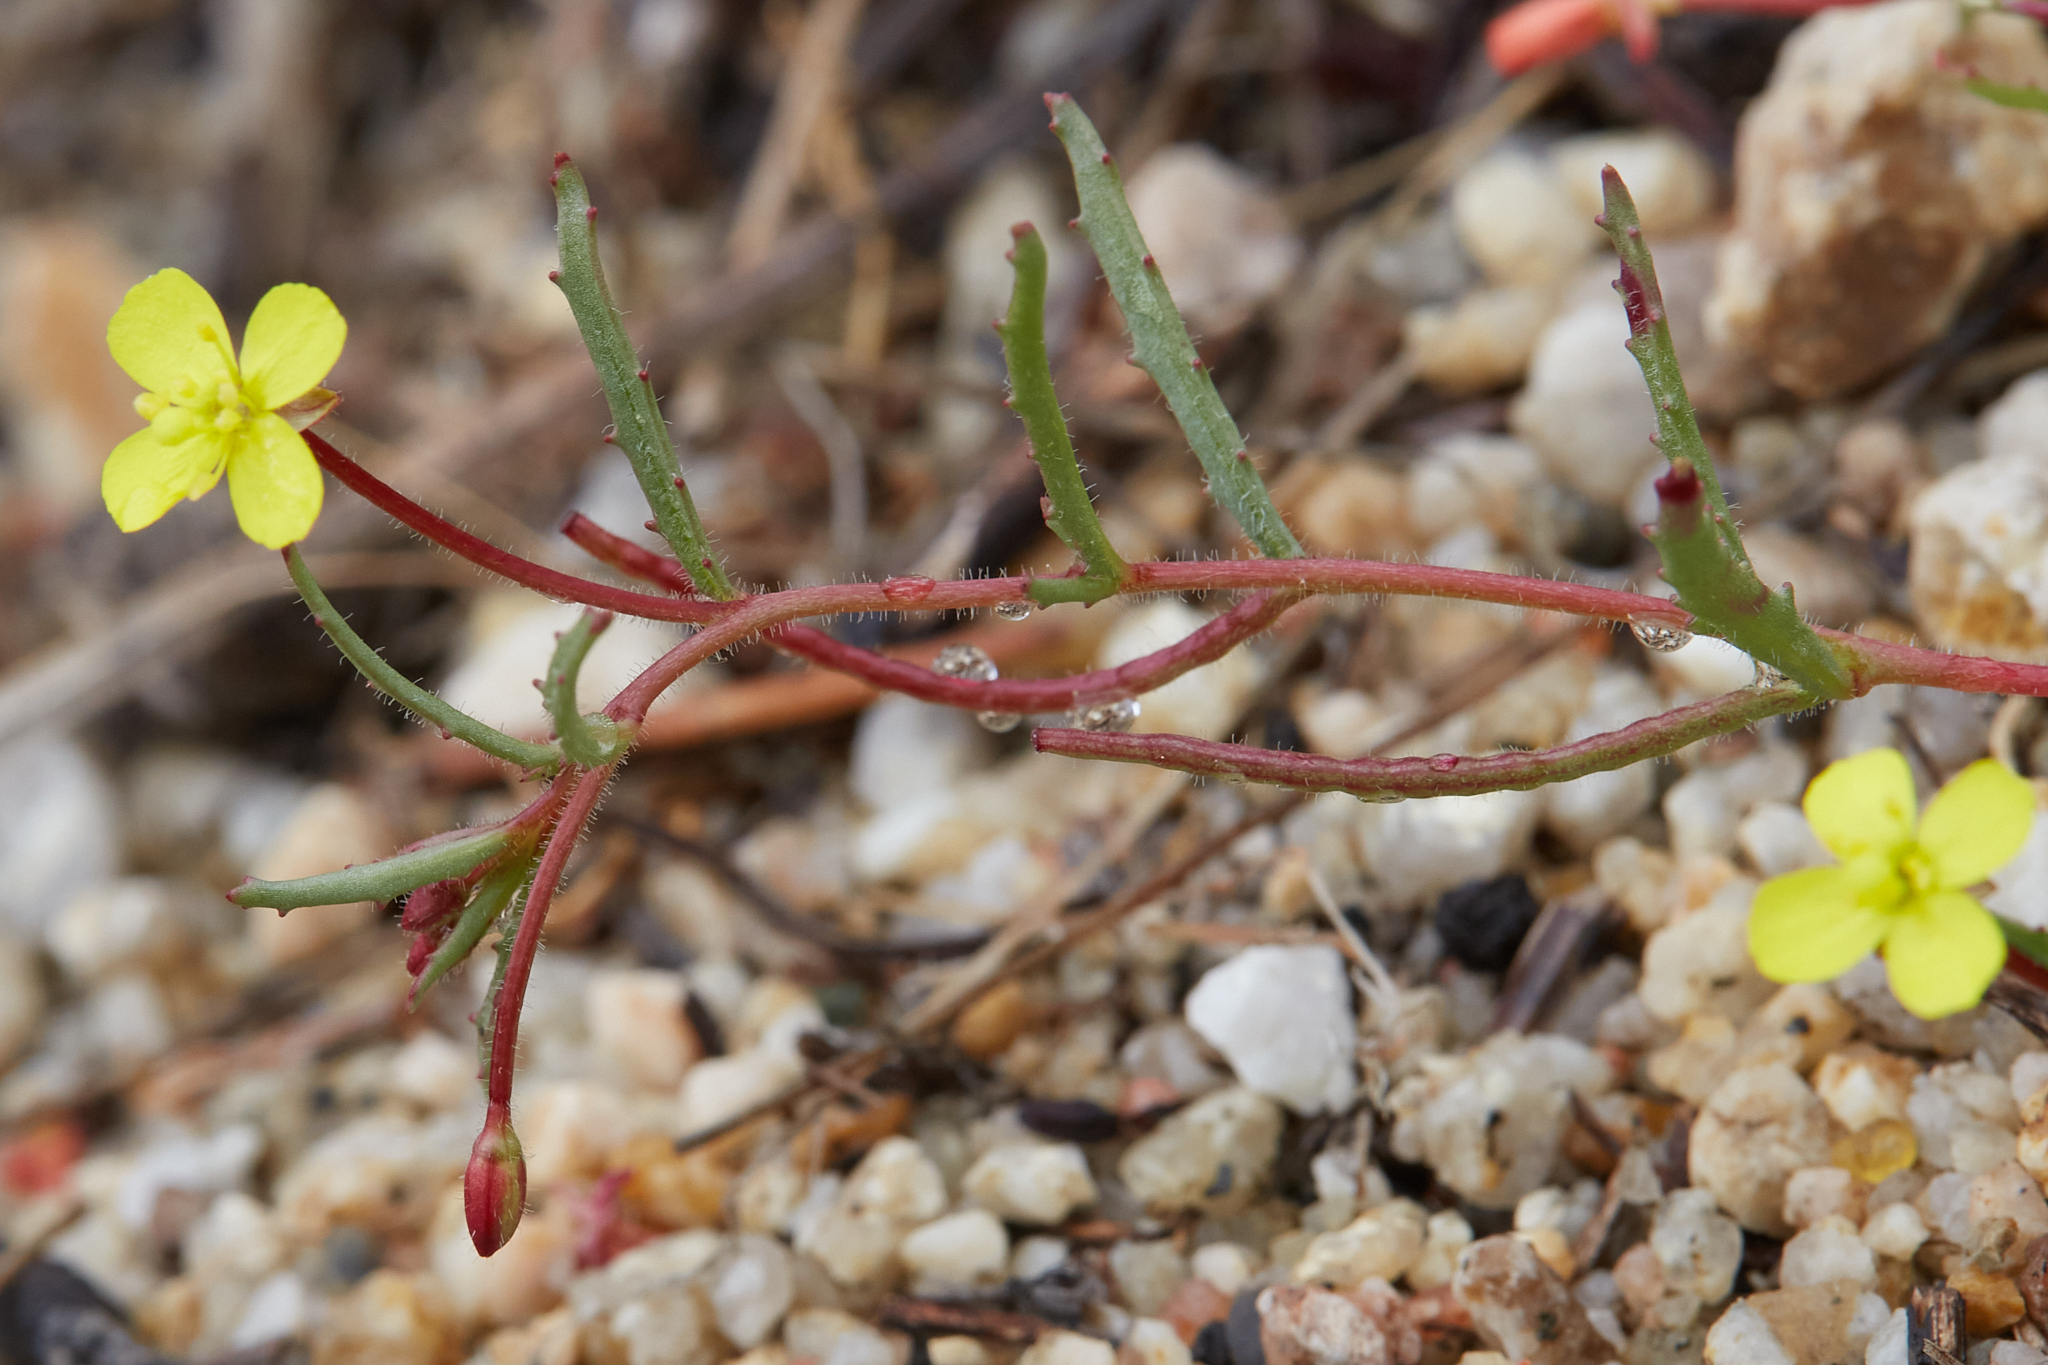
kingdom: Plantae
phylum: Tracheophyta
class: Magnoliopsida
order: Myrtales
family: Onagraceae
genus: Camissonia
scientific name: Camissonia contorta
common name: Contorted suncup
